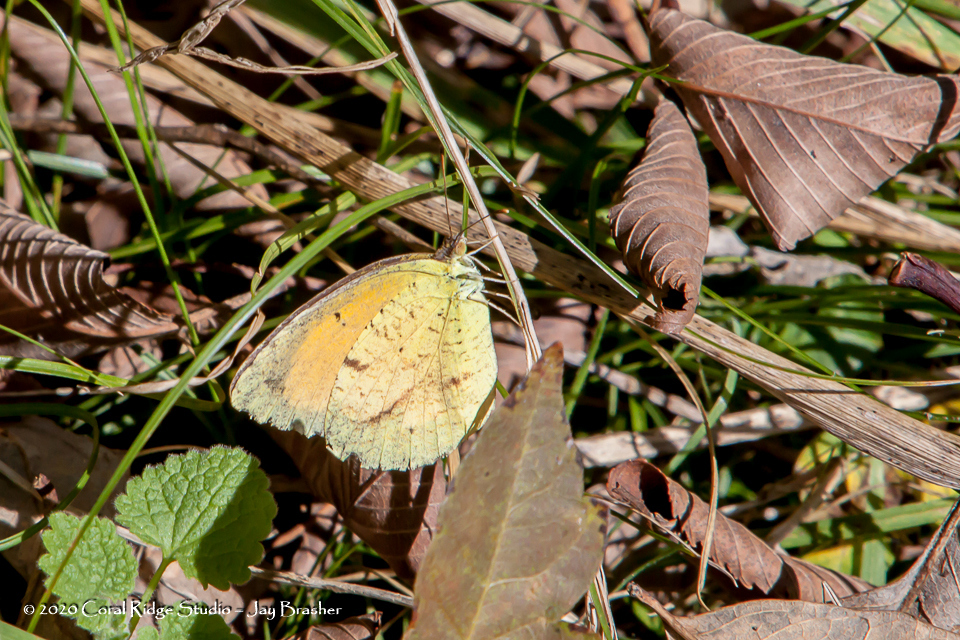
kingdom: Animalia
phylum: Arthropoda
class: Insecta
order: Lepidoptera
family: Pieridae
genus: Abaeis
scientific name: Abaeis nicippe
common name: Sleepy orange
